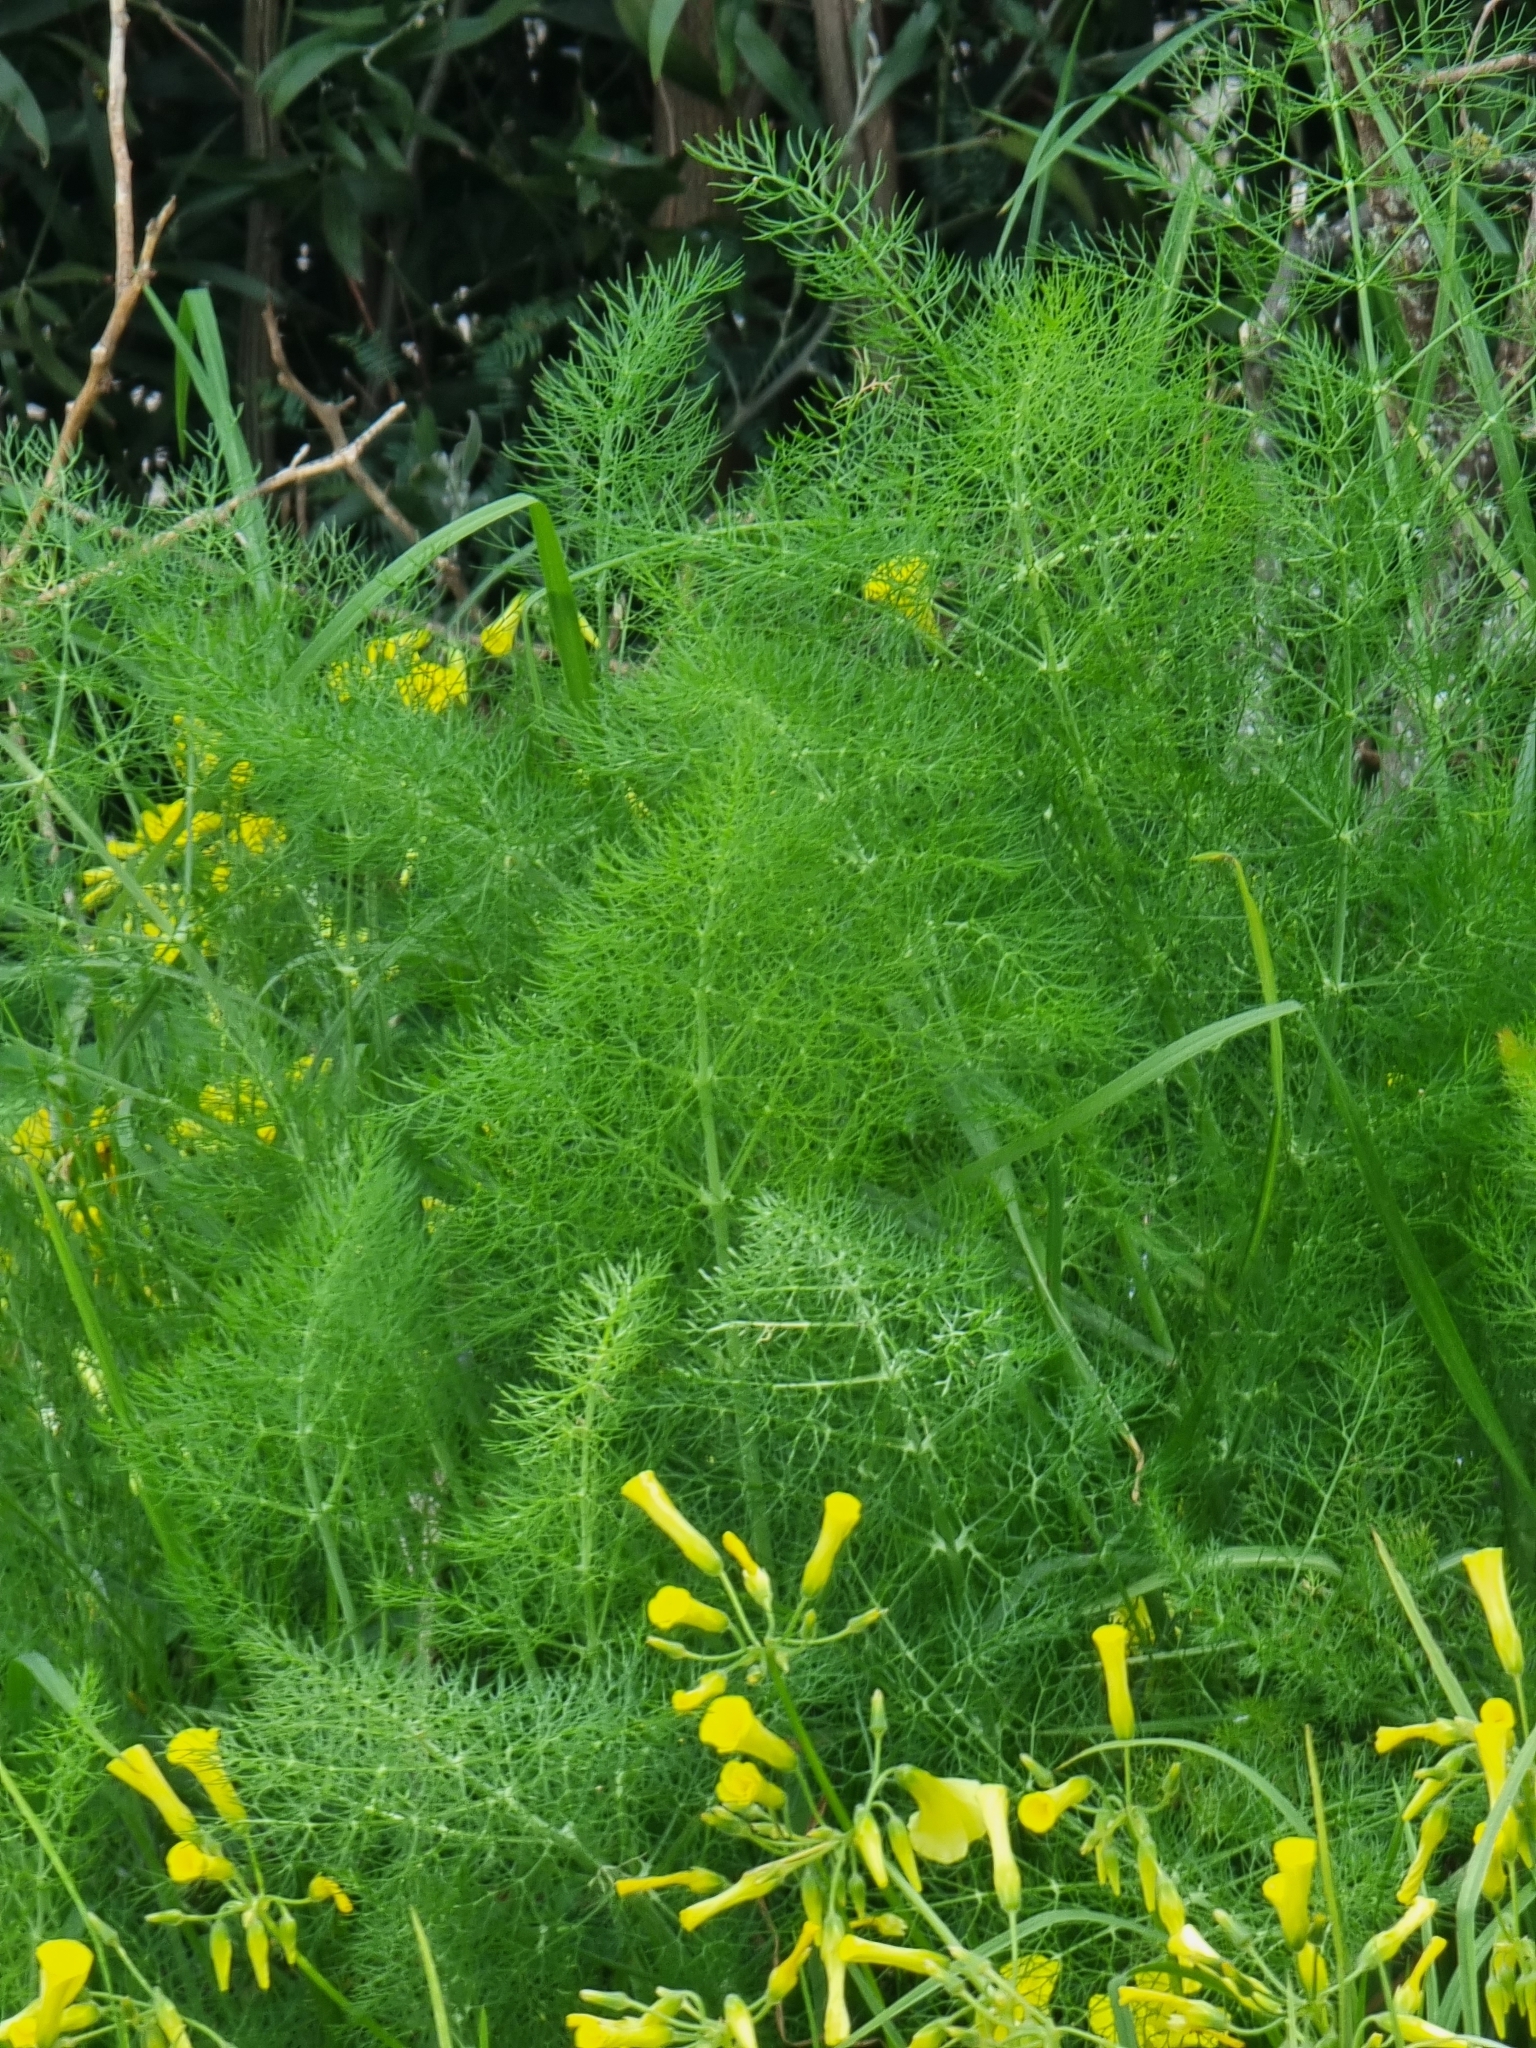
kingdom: Plantae
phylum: Tracheophyta
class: Magnoliopsida
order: Apiales
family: Apiaceae
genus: Foeniculum
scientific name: Foeniculum vulgare
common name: Fennel
